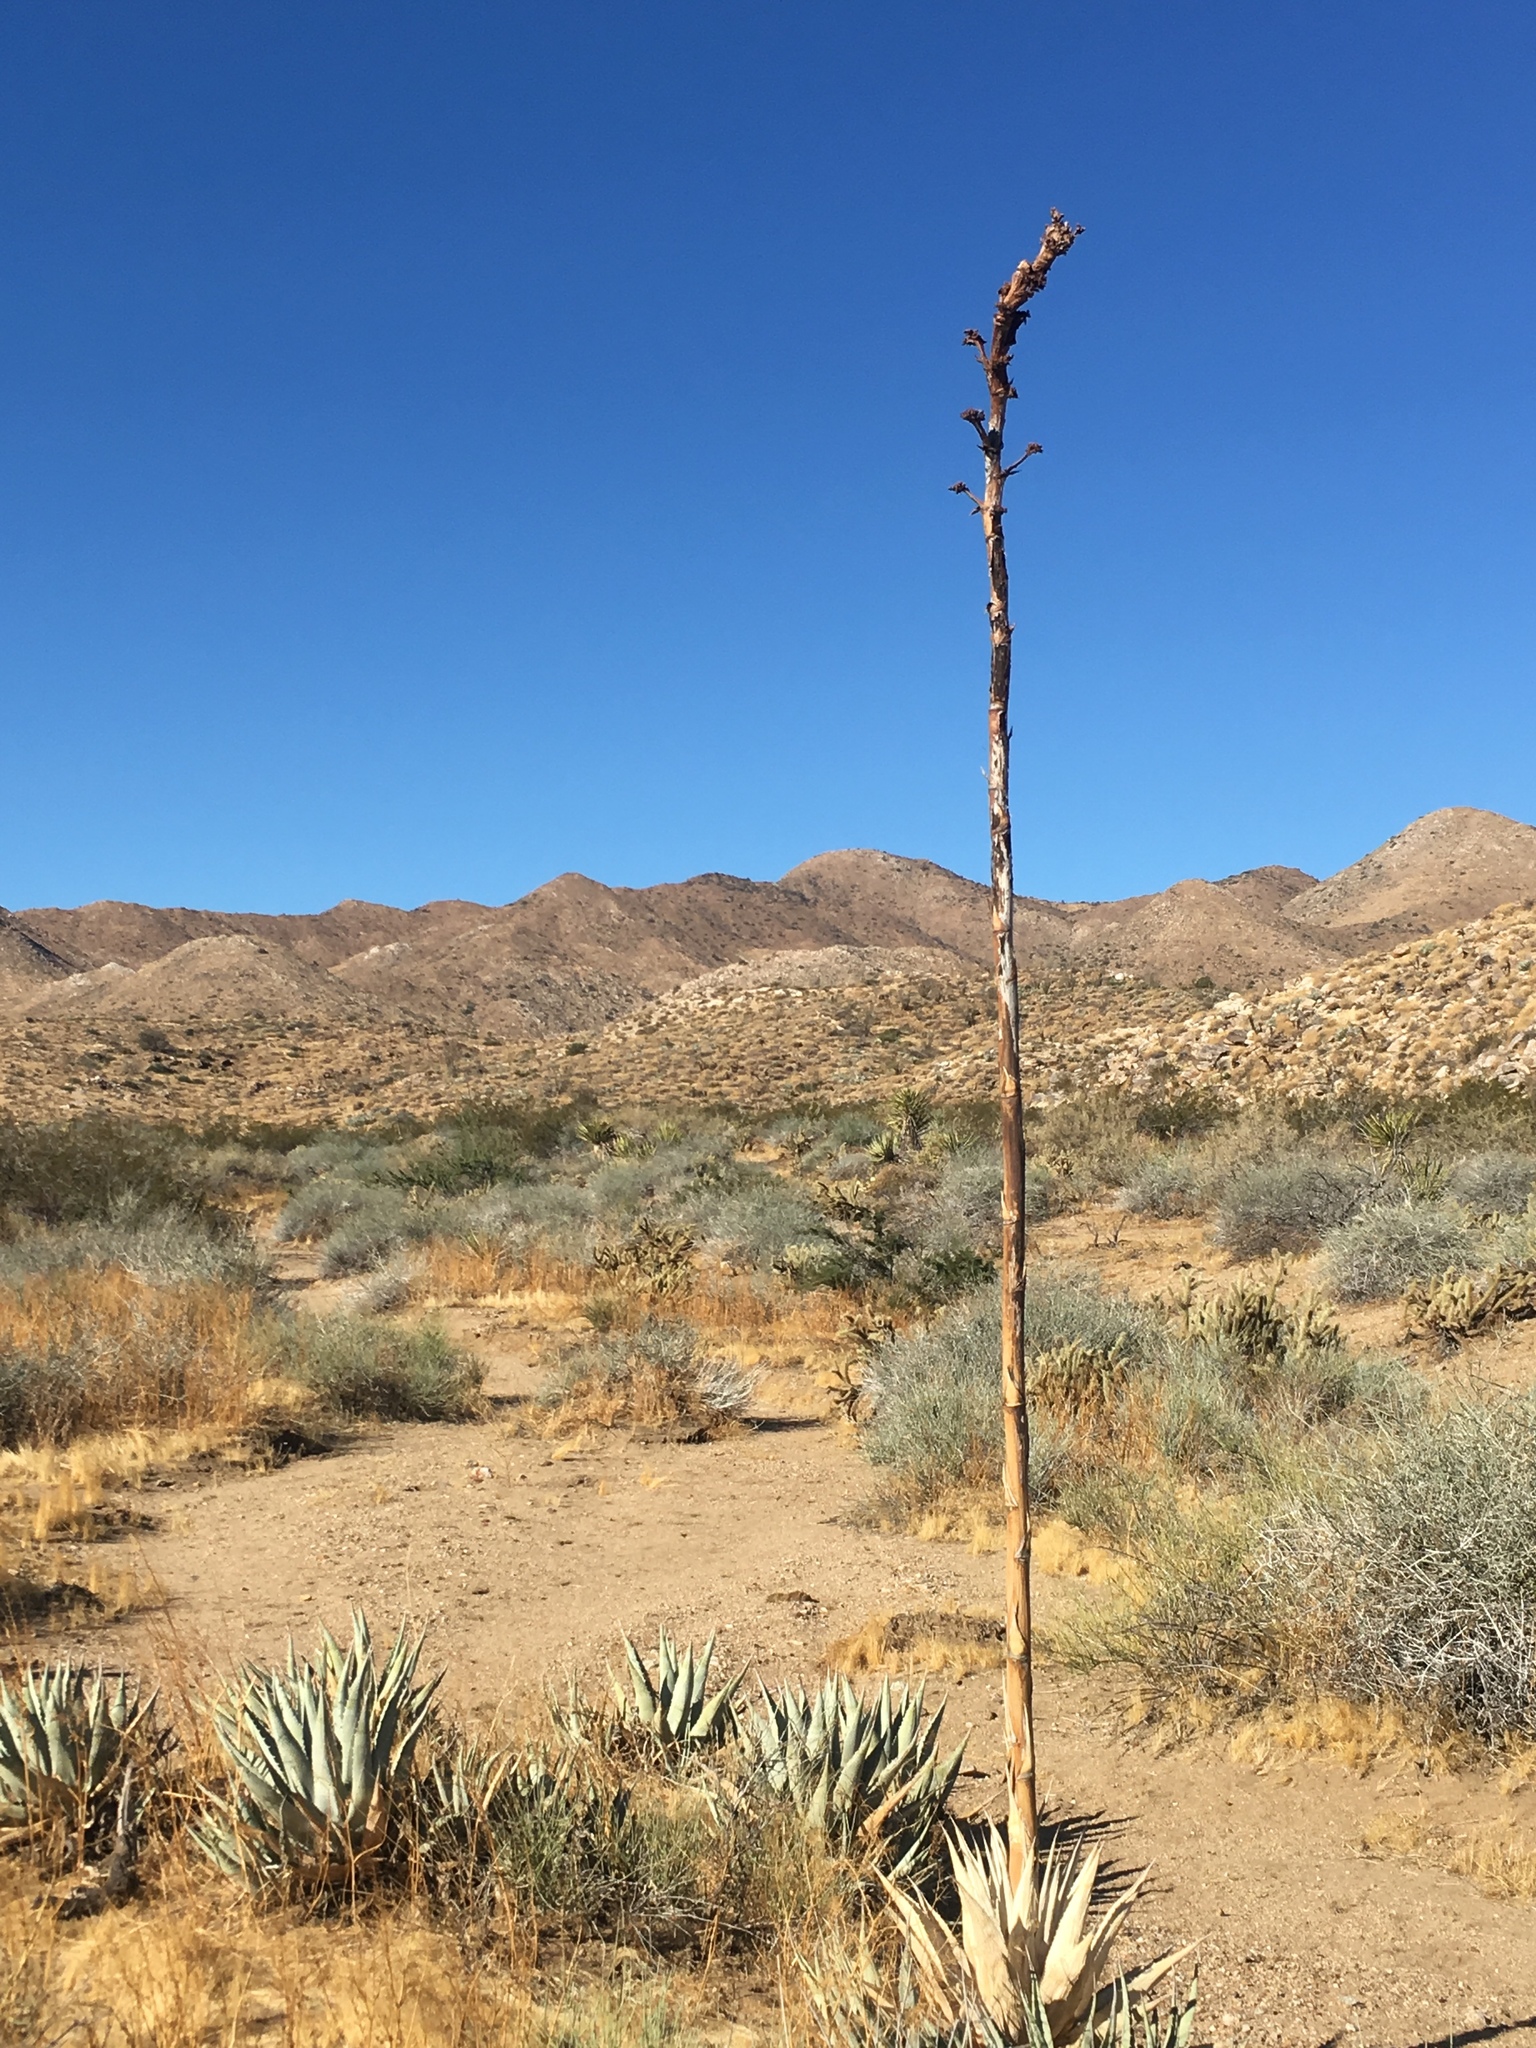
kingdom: Plantae
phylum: Tracheophyta
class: Liliopsida
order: Asparagales
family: Asparagaceae
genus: Agave
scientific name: Agave deserti
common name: Desert agave
